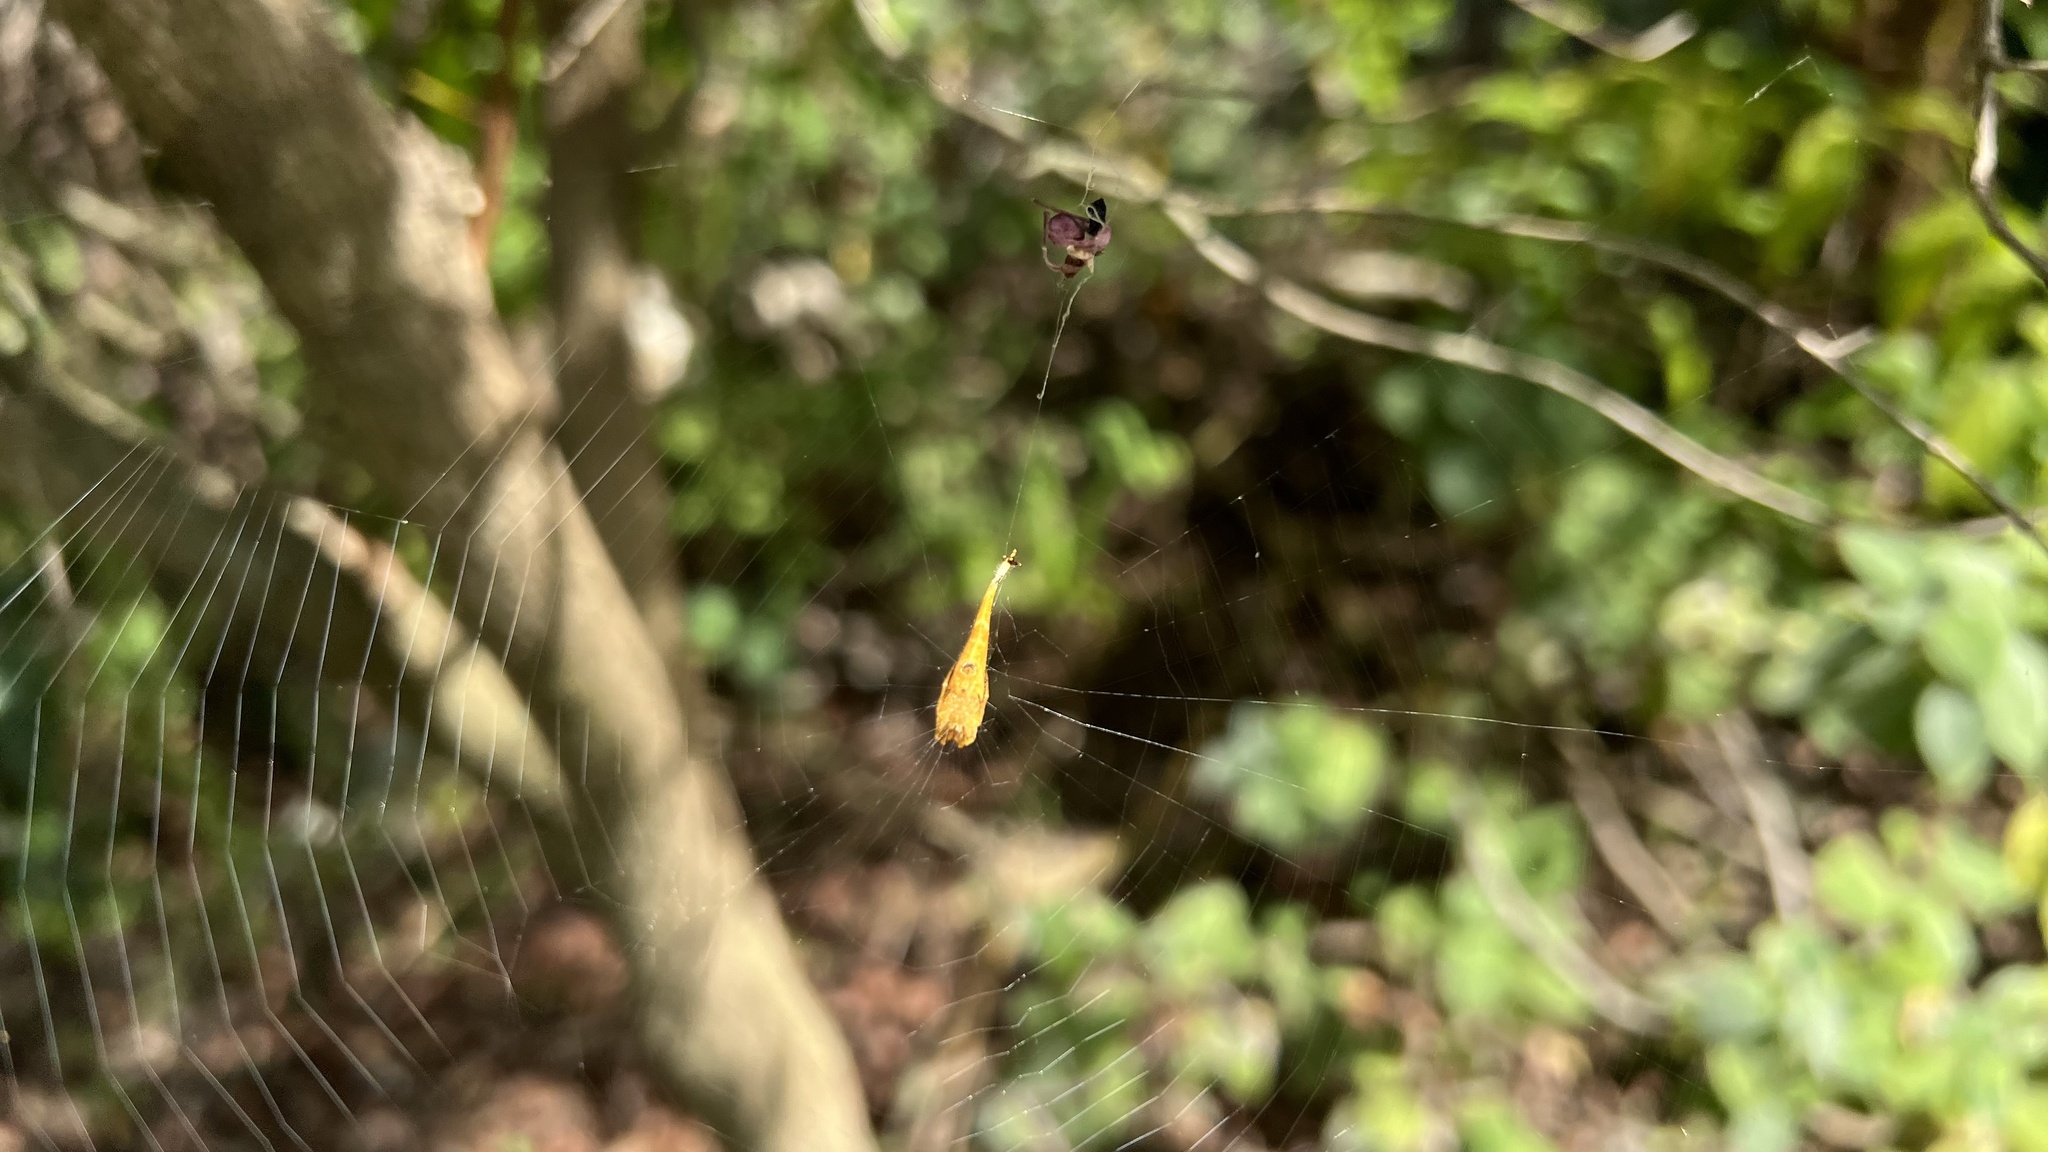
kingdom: Animalia
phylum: Arthropoda
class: Arachnida
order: Araneae
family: Araneidae
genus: Arachnura
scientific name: Arachnura higginsi
